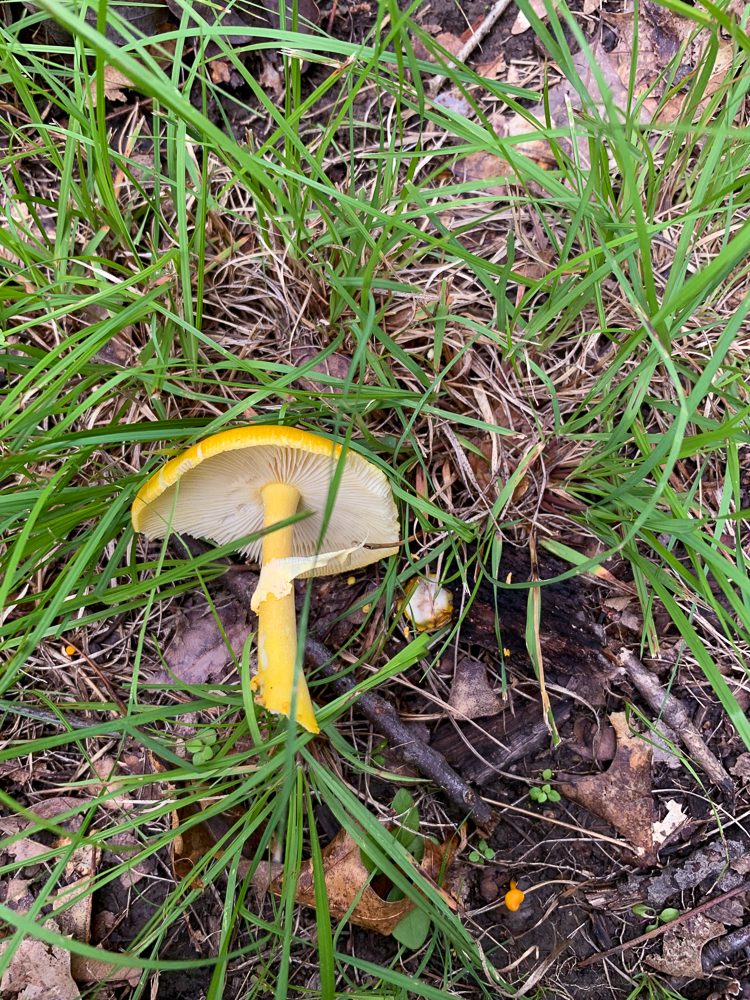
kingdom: Fungi
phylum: Basidiomycota
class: Agaricomycetes
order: Agaricales
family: Amanitaceae
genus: Amanita
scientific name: Amanita flavoconia
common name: Yellow patches
